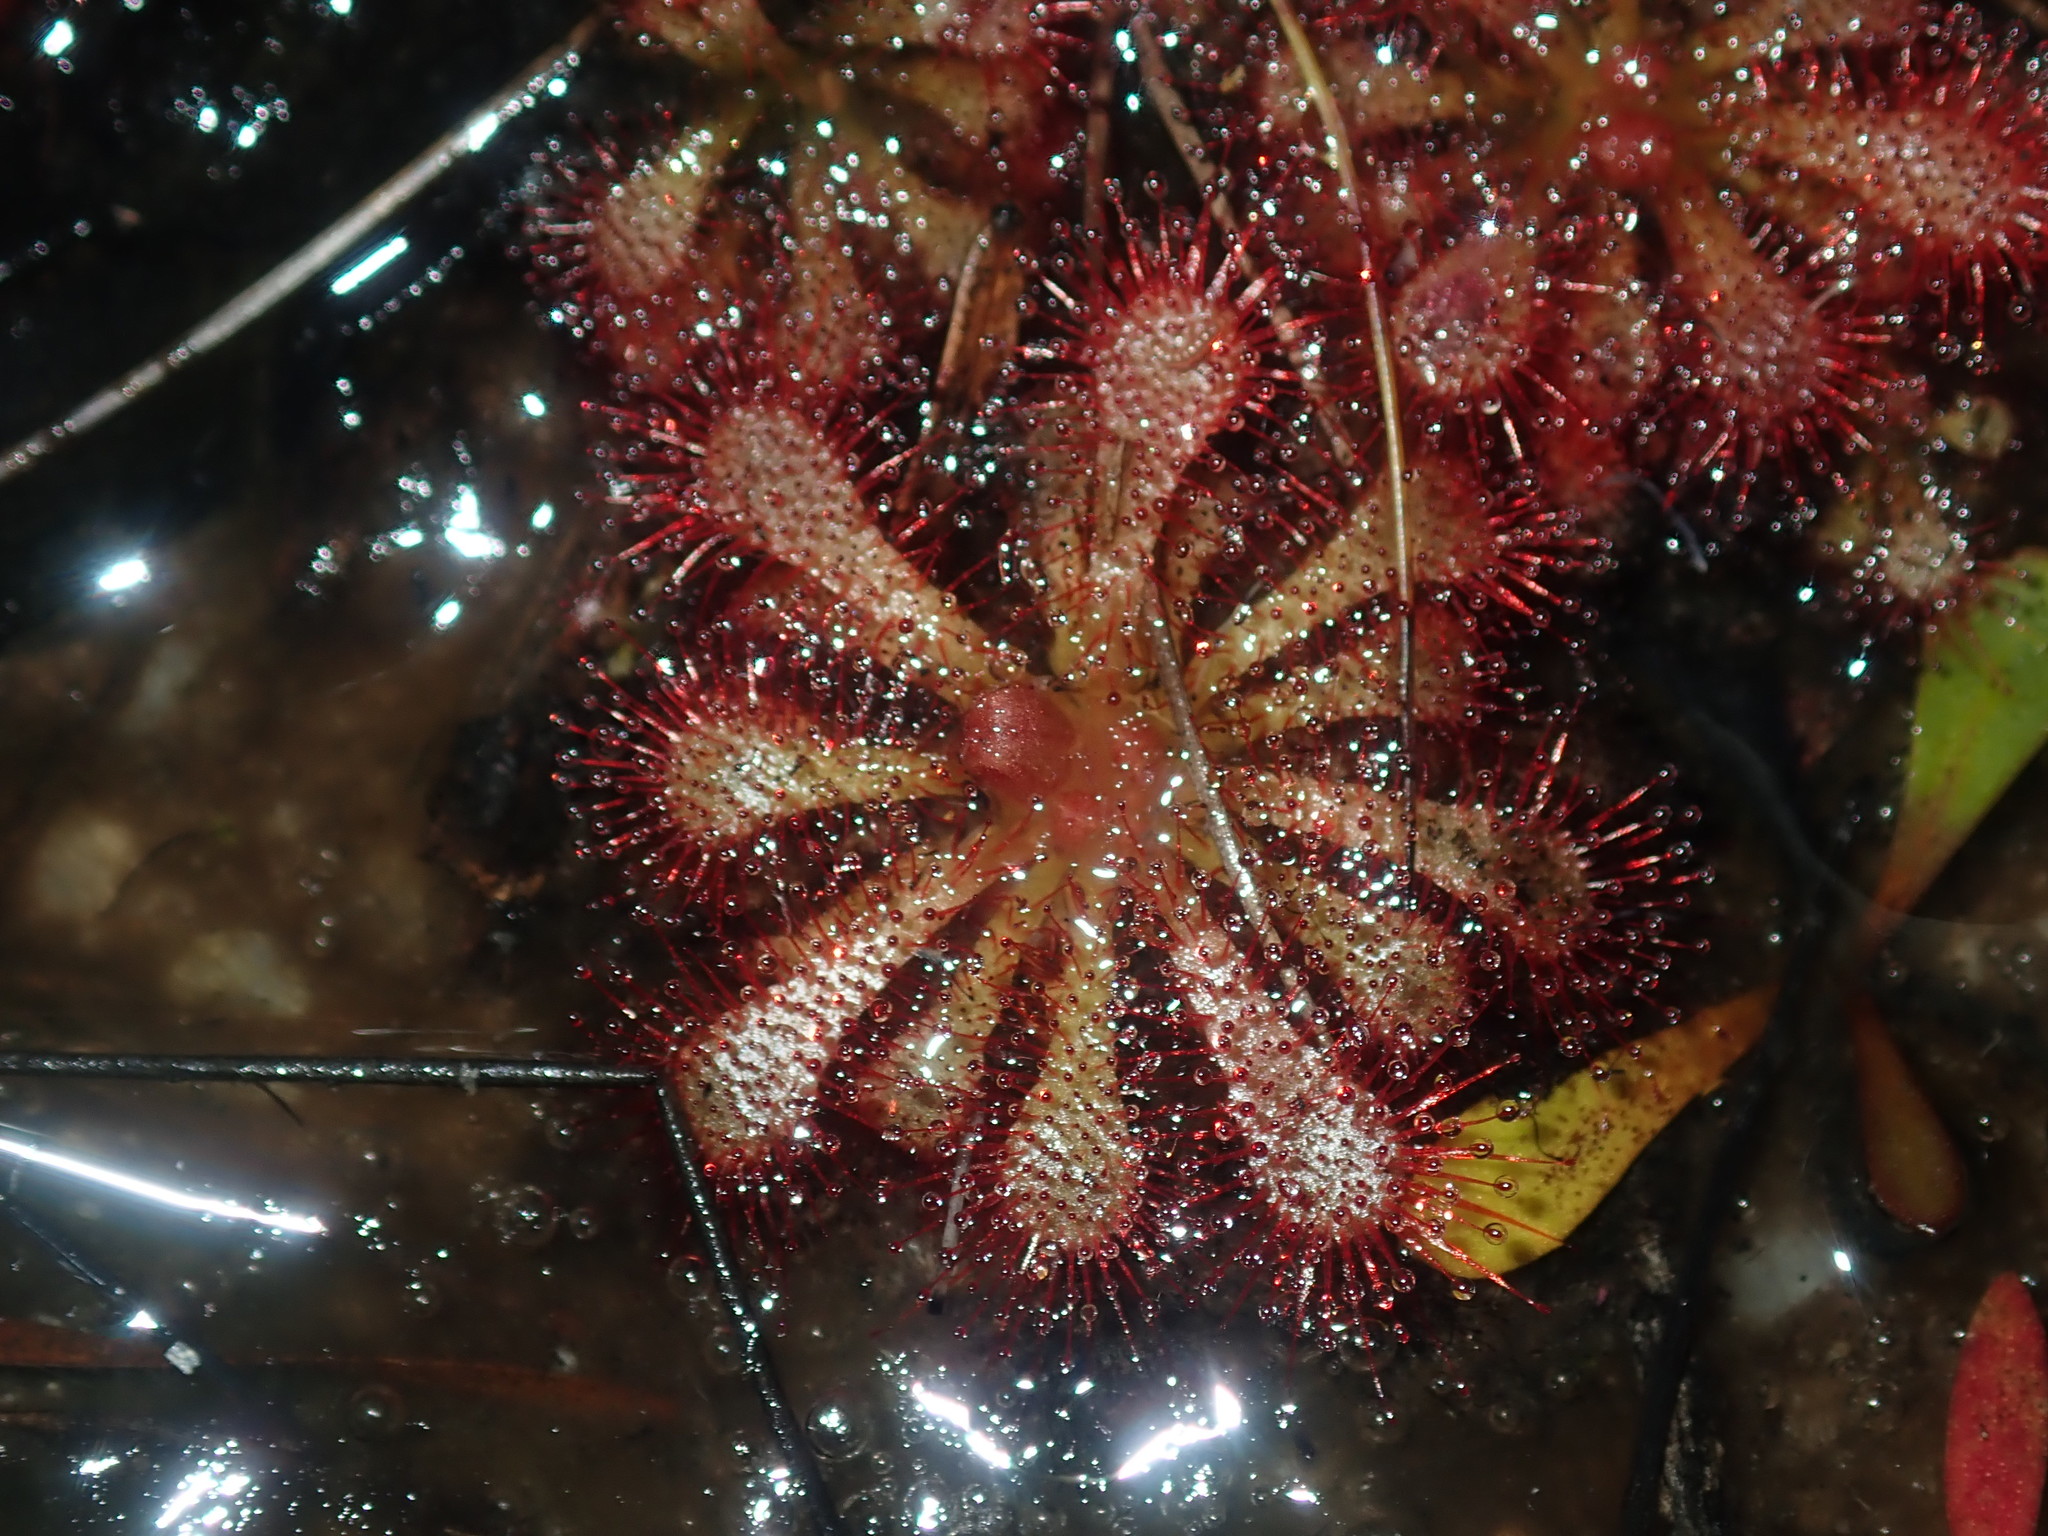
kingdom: Plantae
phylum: Tracheophyta
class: Magnoliopsida
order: Caryophyllales
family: Droseraceae
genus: Drosera
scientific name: Drosera spatulata
